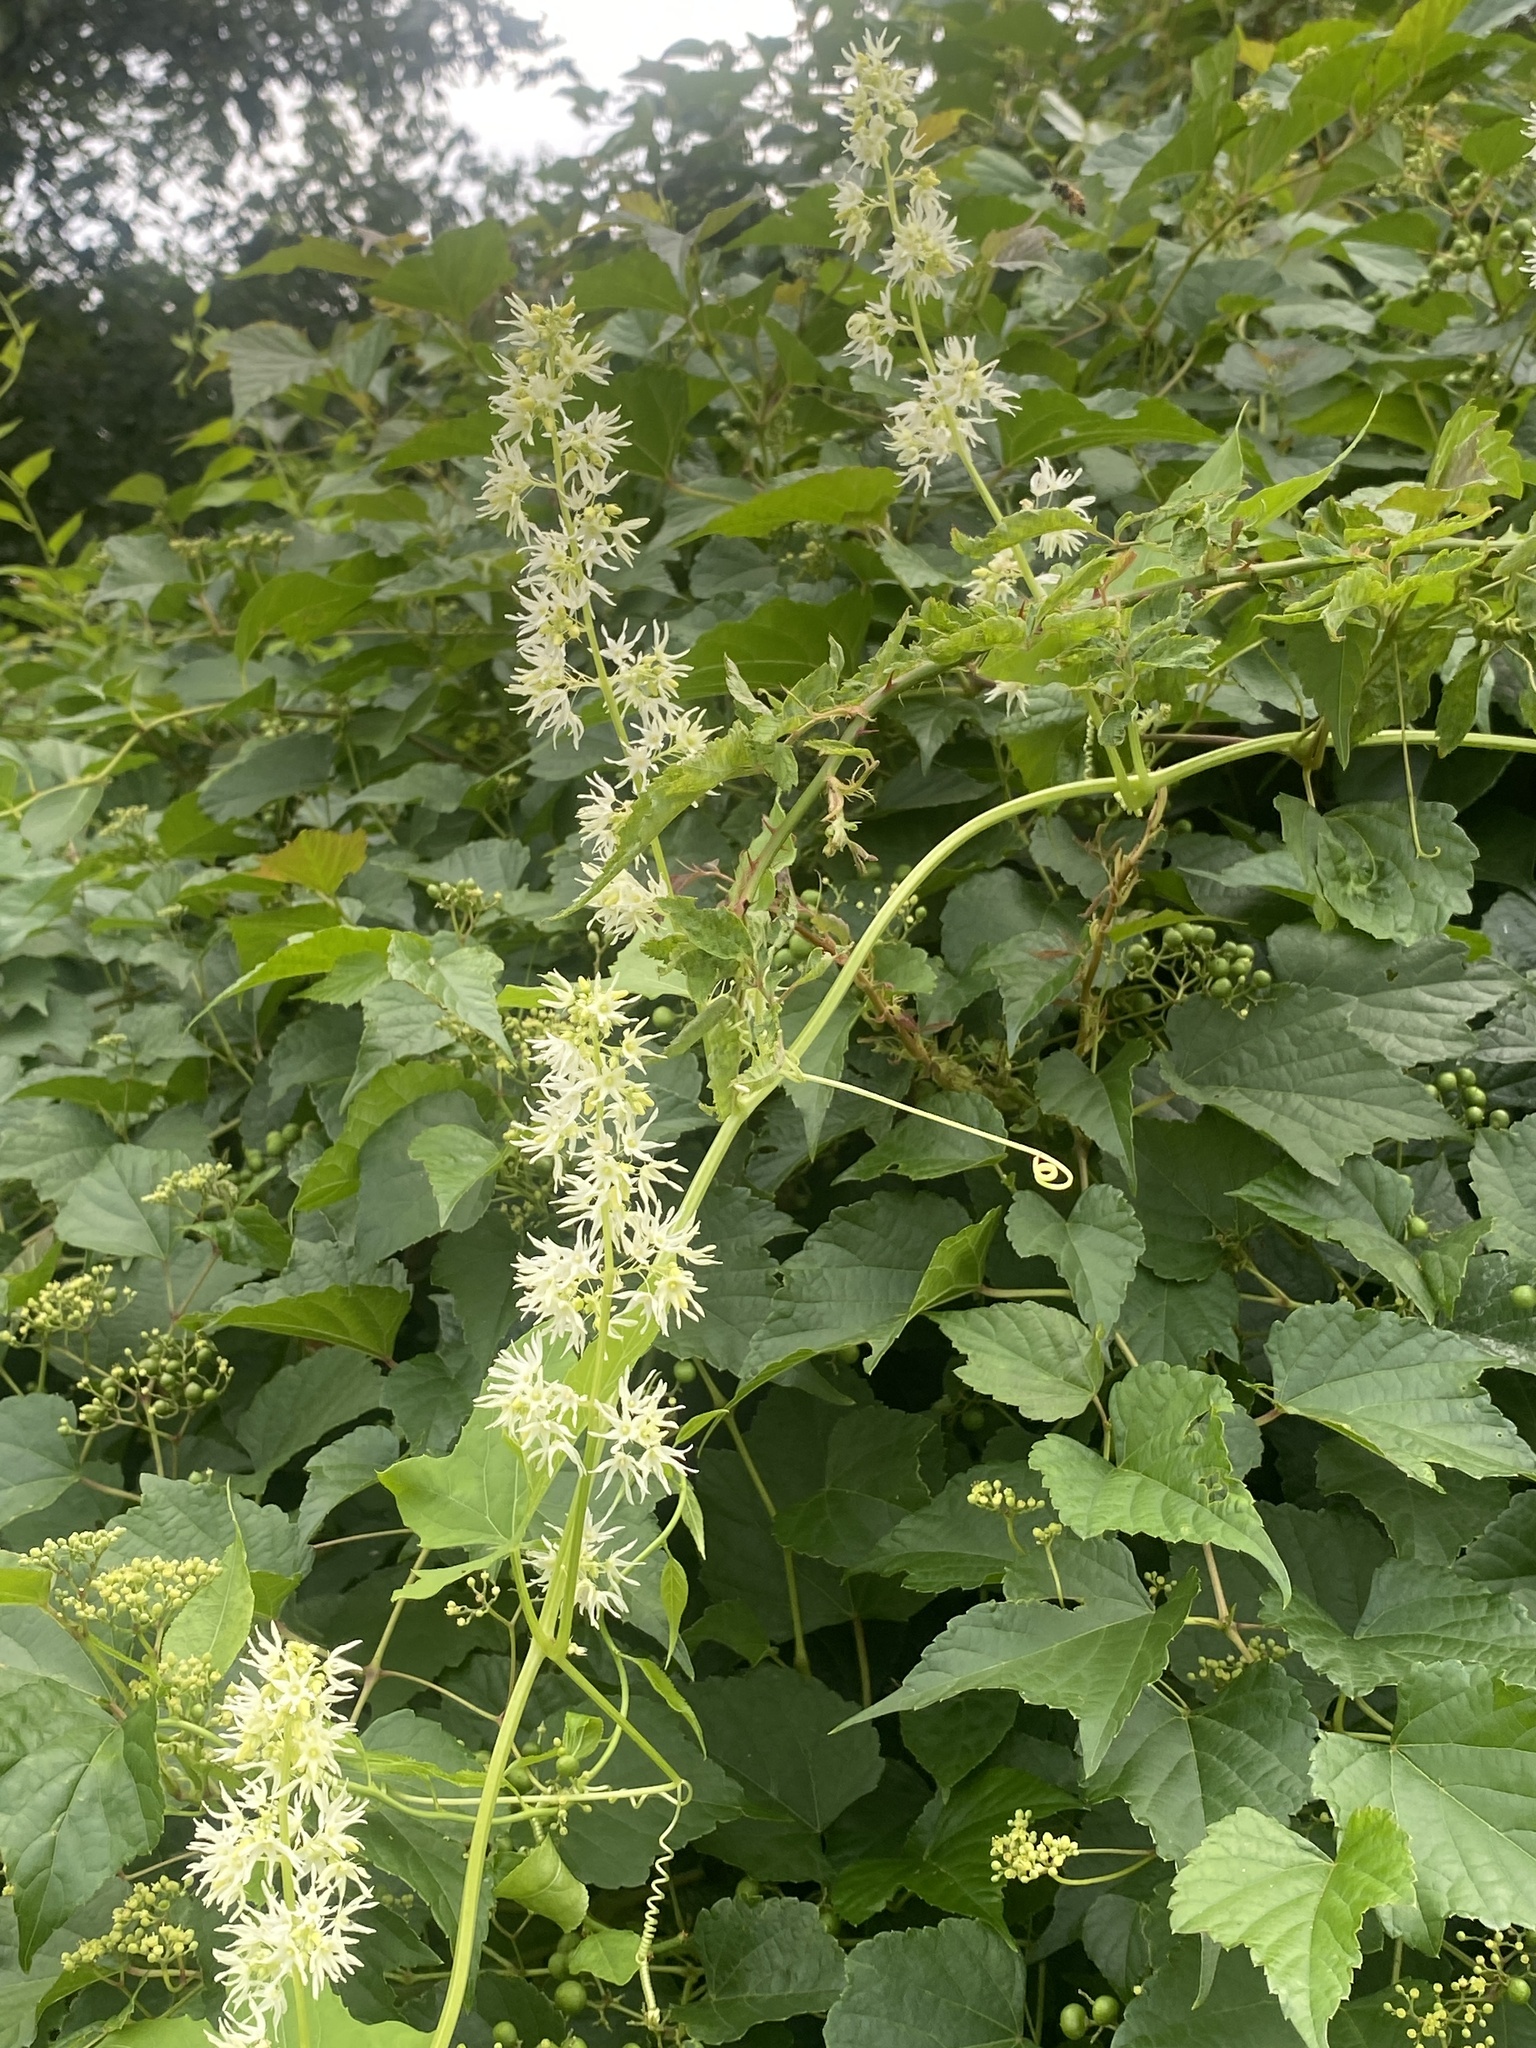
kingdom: Plantae
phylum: Tracheophyta
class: Magnoliopsida
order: Cucurbitales
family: Cucurbitaceae
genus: Echinocystis
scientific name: Echinocystis lobata
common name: Wild cucumber
